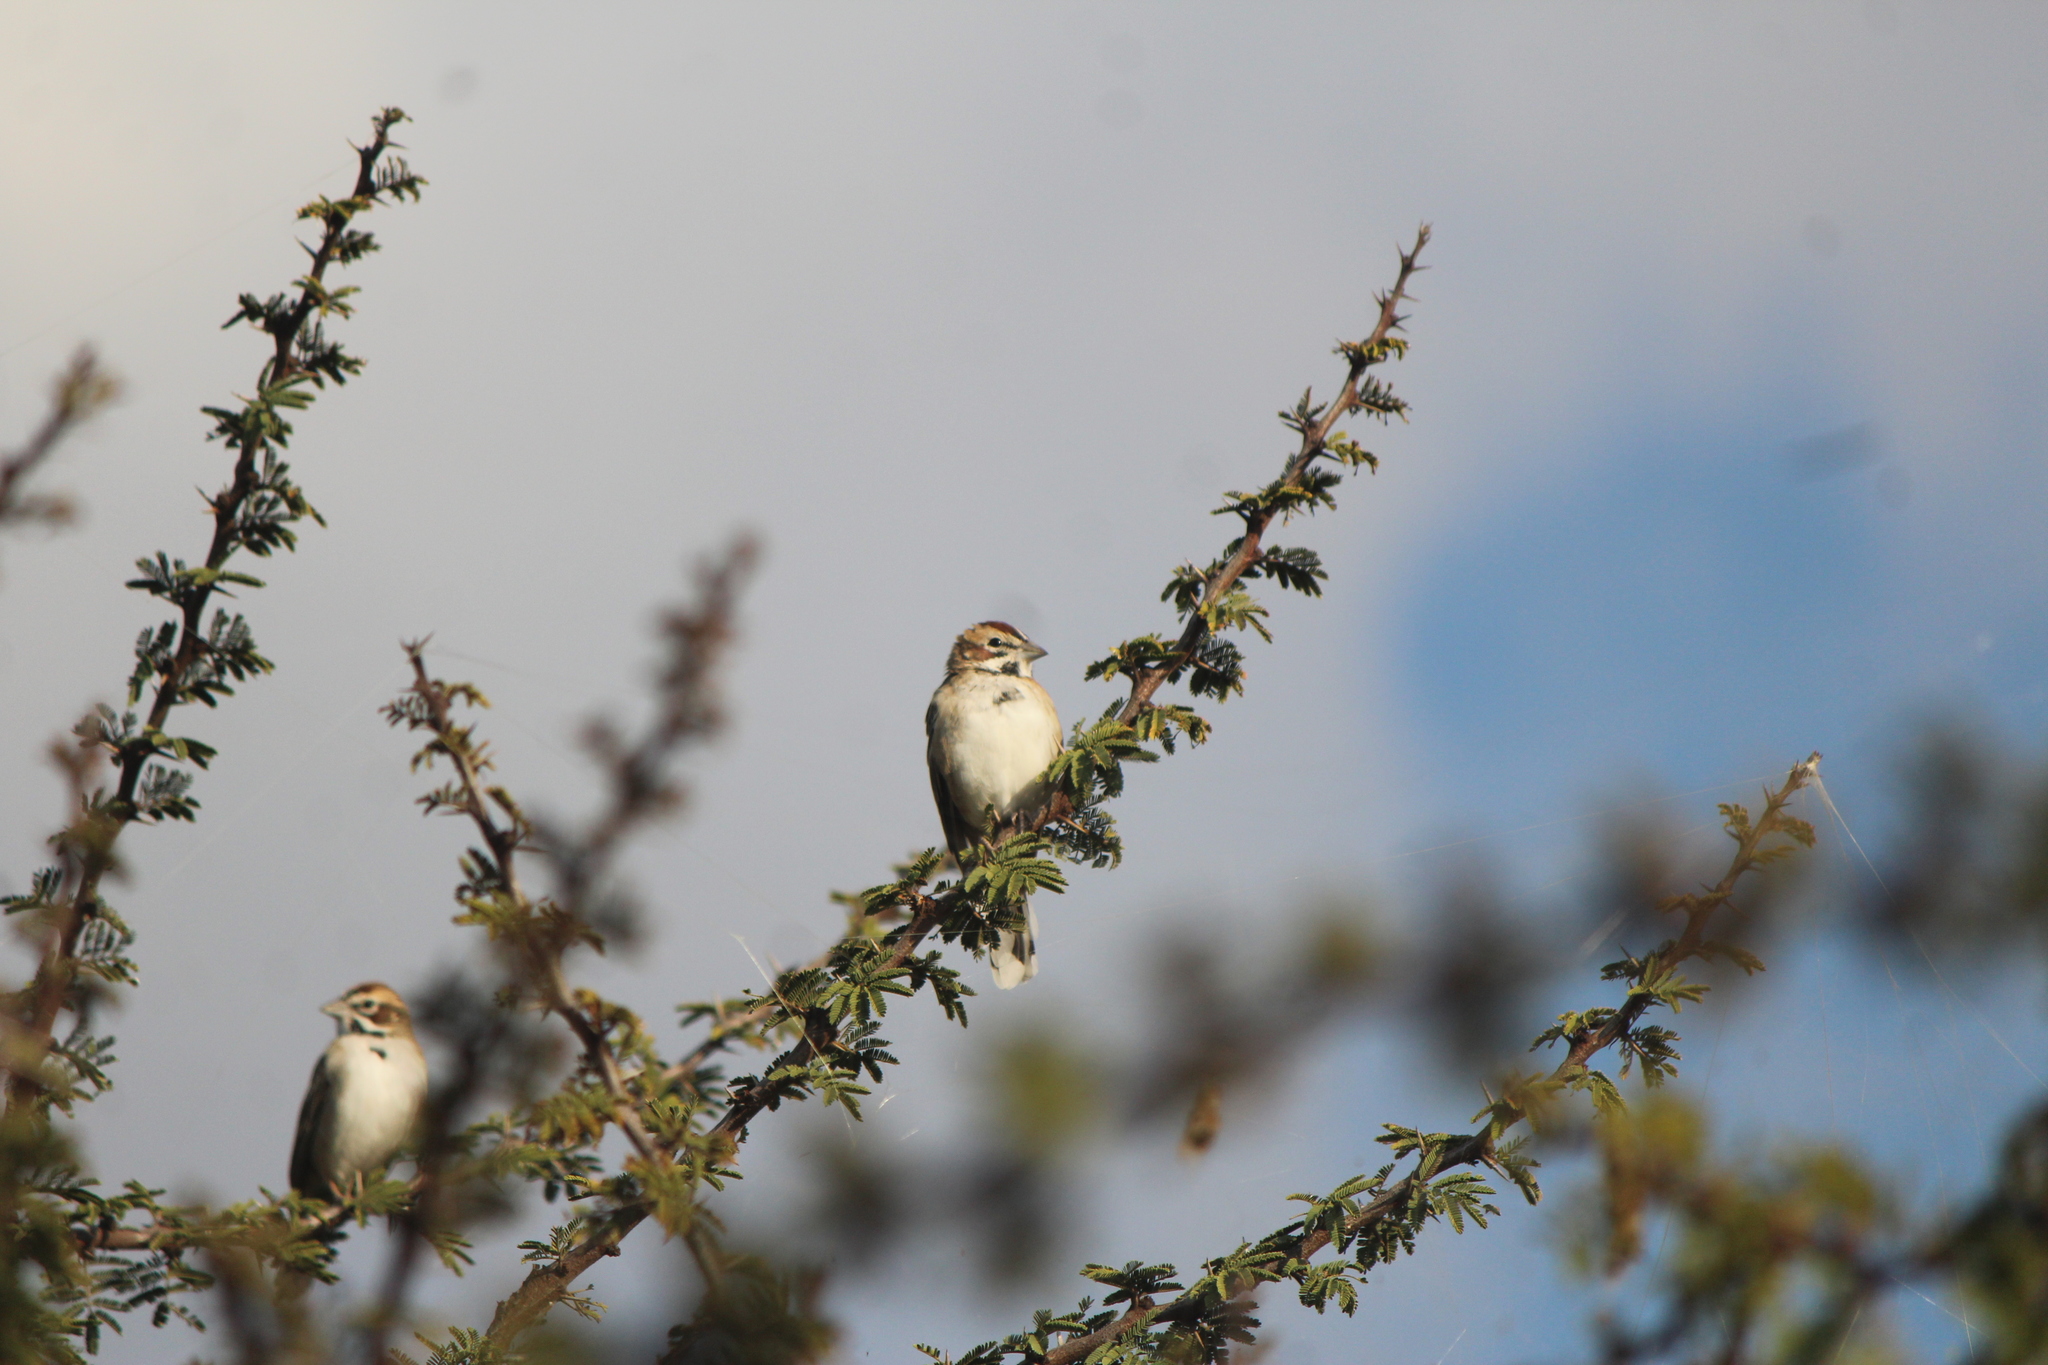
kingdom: Animalia
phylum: Chordata
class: Aves
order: Passeriformes
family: Passerellidae
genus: Chondestes
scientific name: Chondestes grammacus
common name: Lark sparrow
